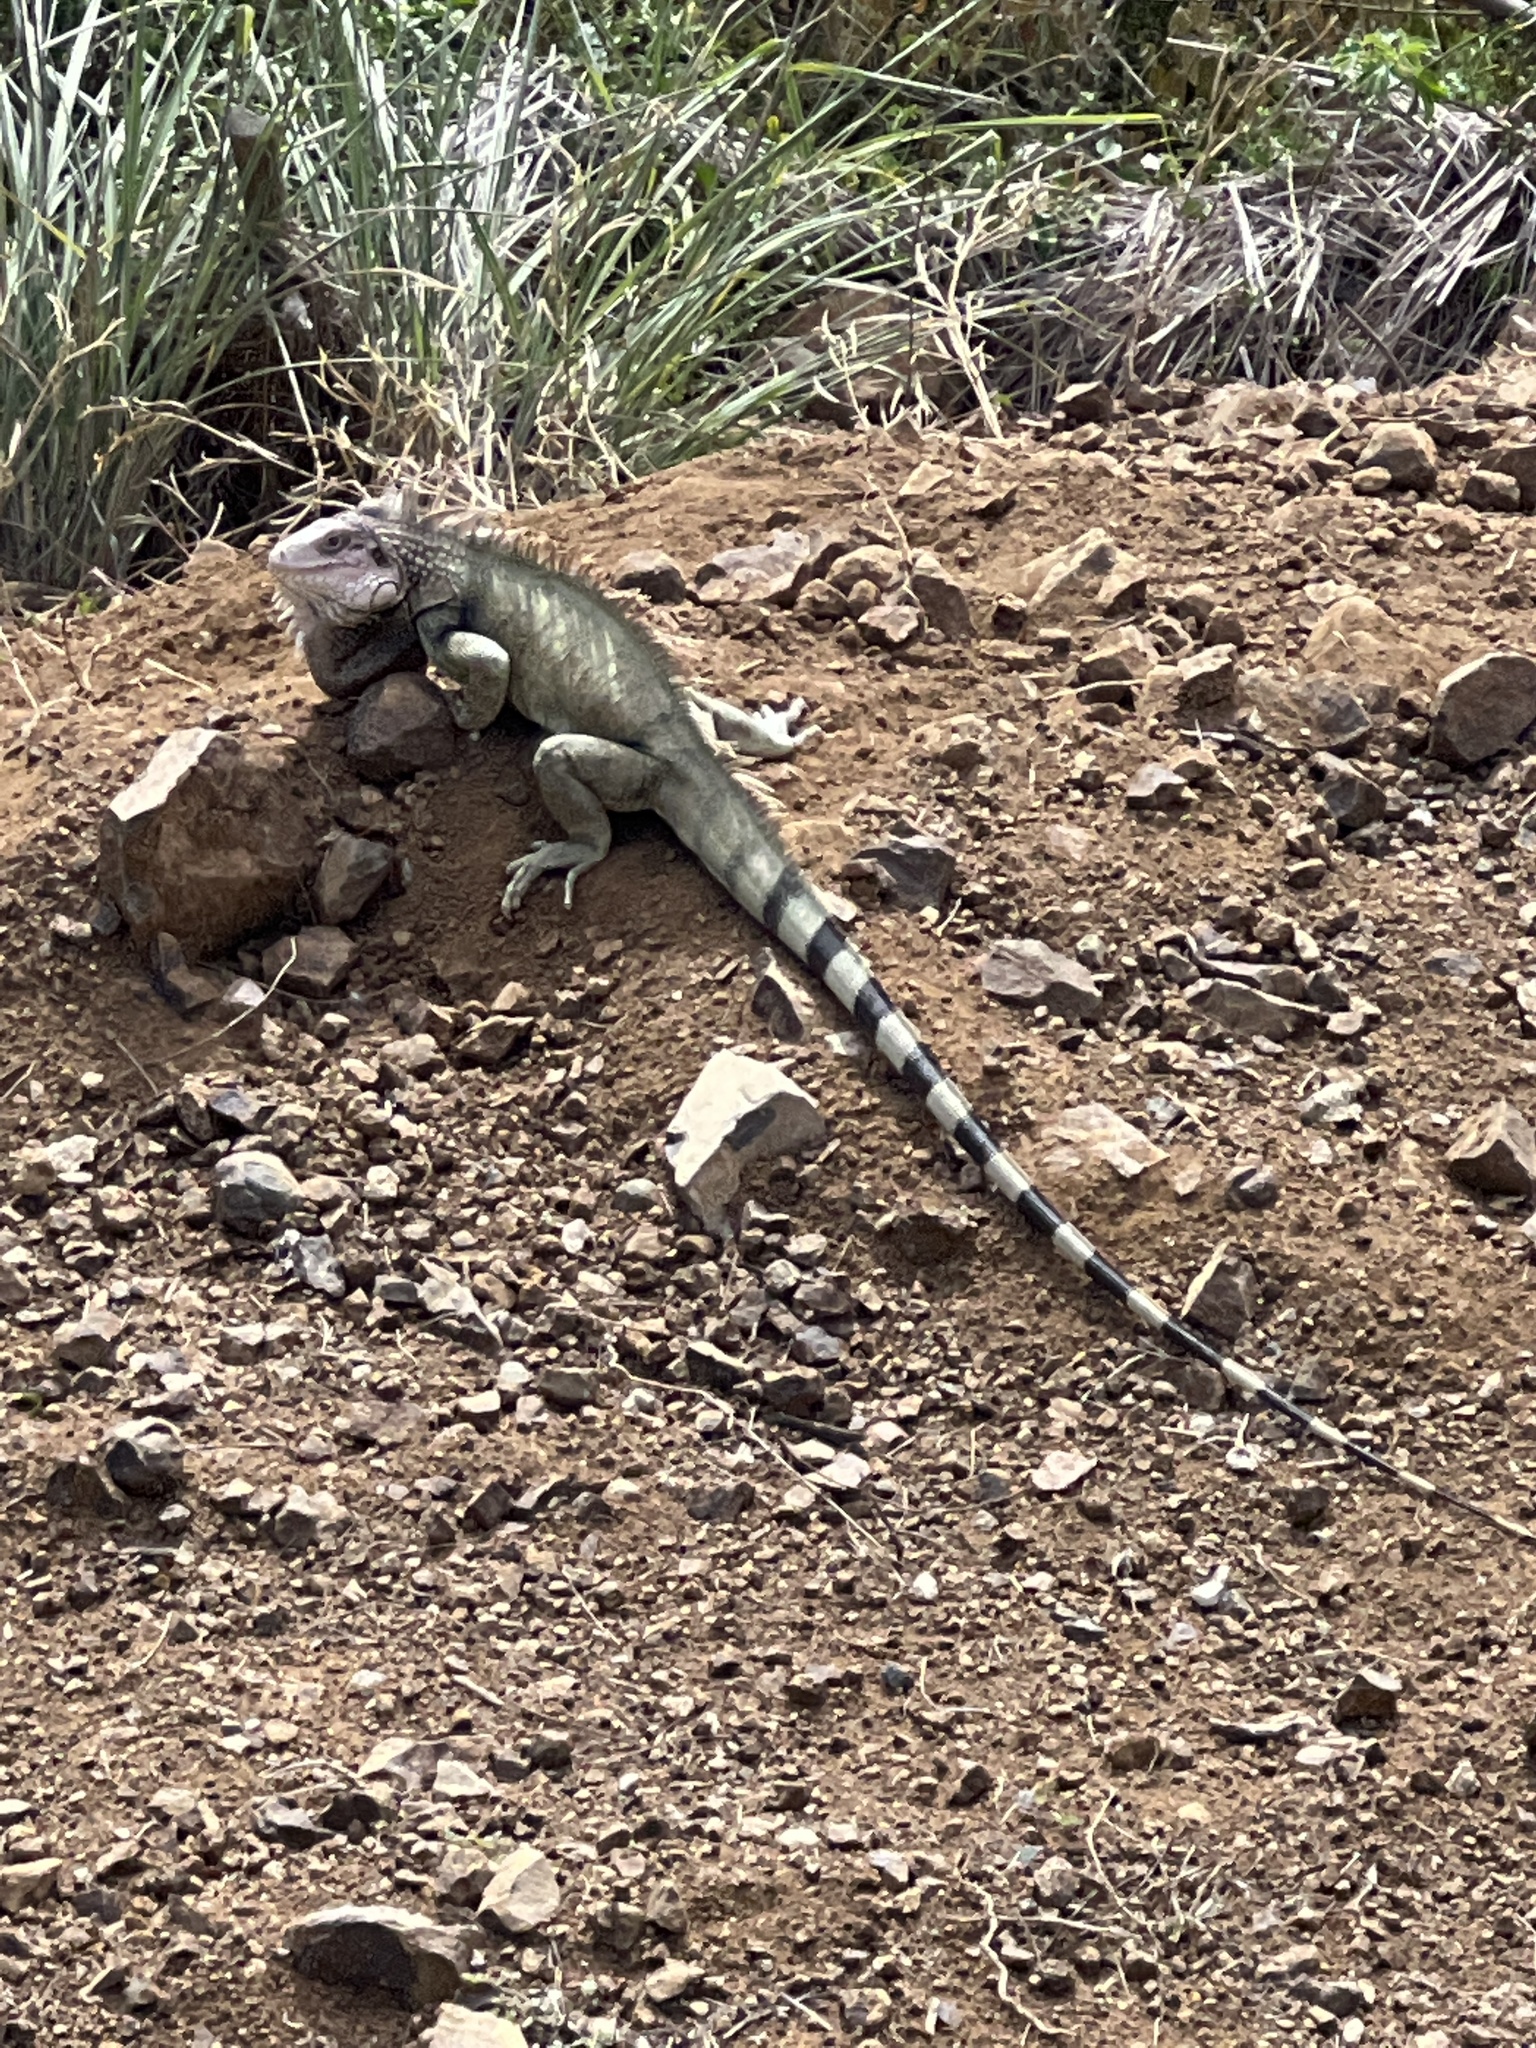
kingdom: Animalia
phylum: Chordata
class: Squamata
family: Iguanidae
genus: Iguana
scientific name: Iguana iguana
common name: Green iguana
